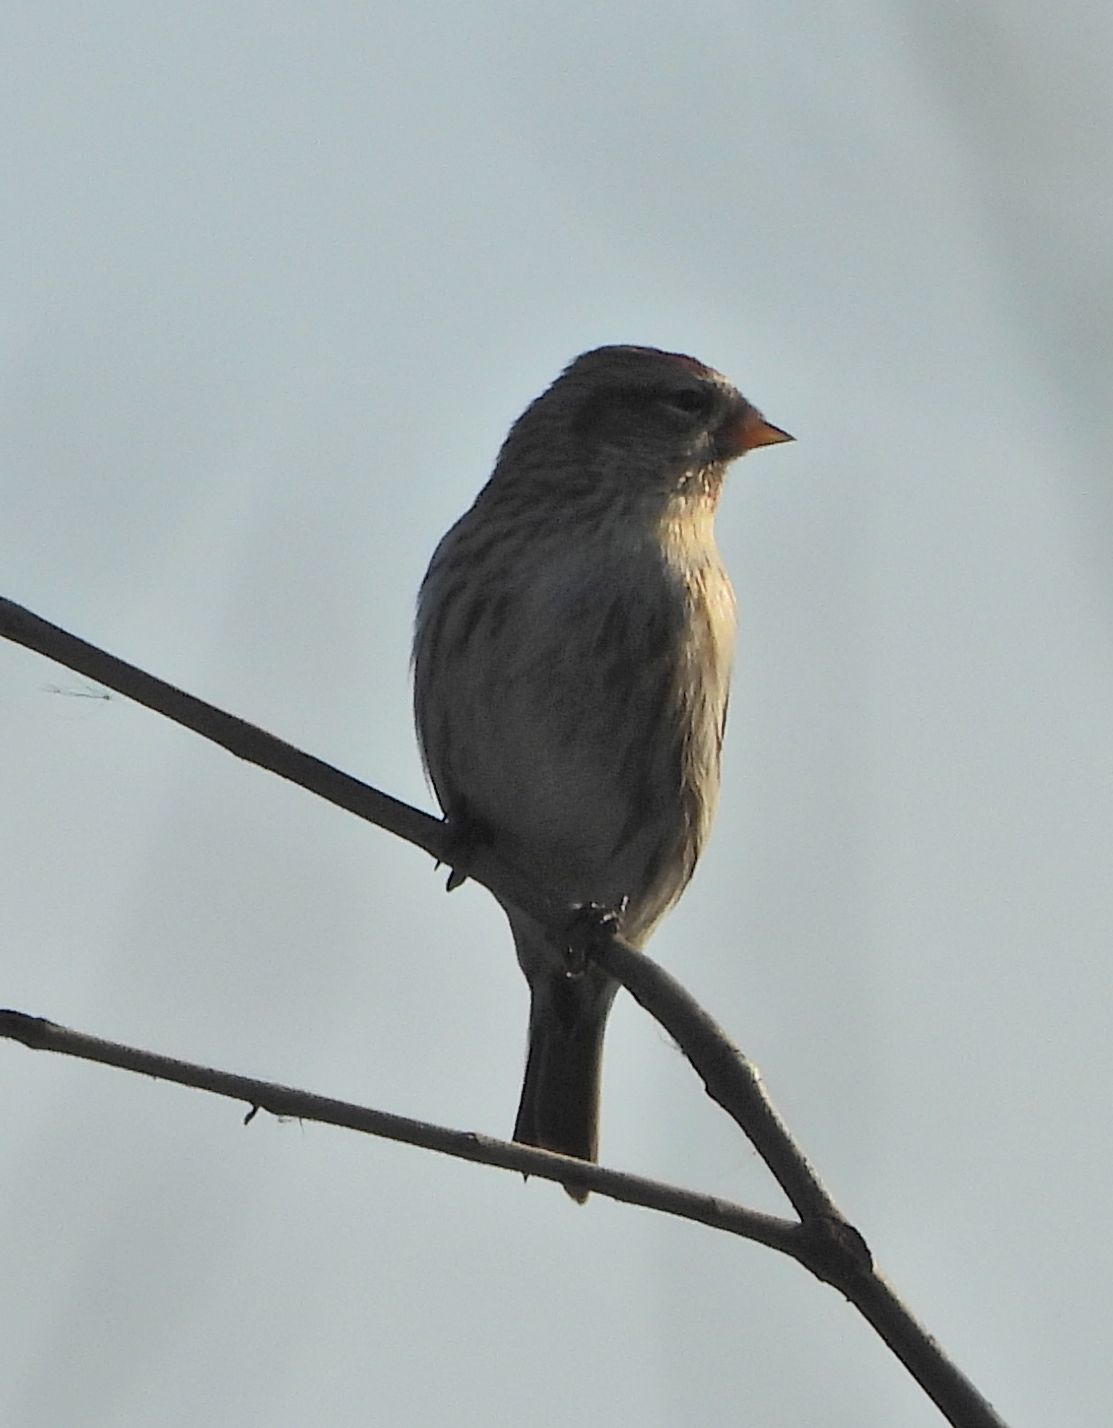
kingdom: Animalia
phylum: Chordata
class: Aves
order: Passeriformes
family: Fringillidae
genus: Acanthis
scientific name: Acanthis flammea
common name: Common redpoll
